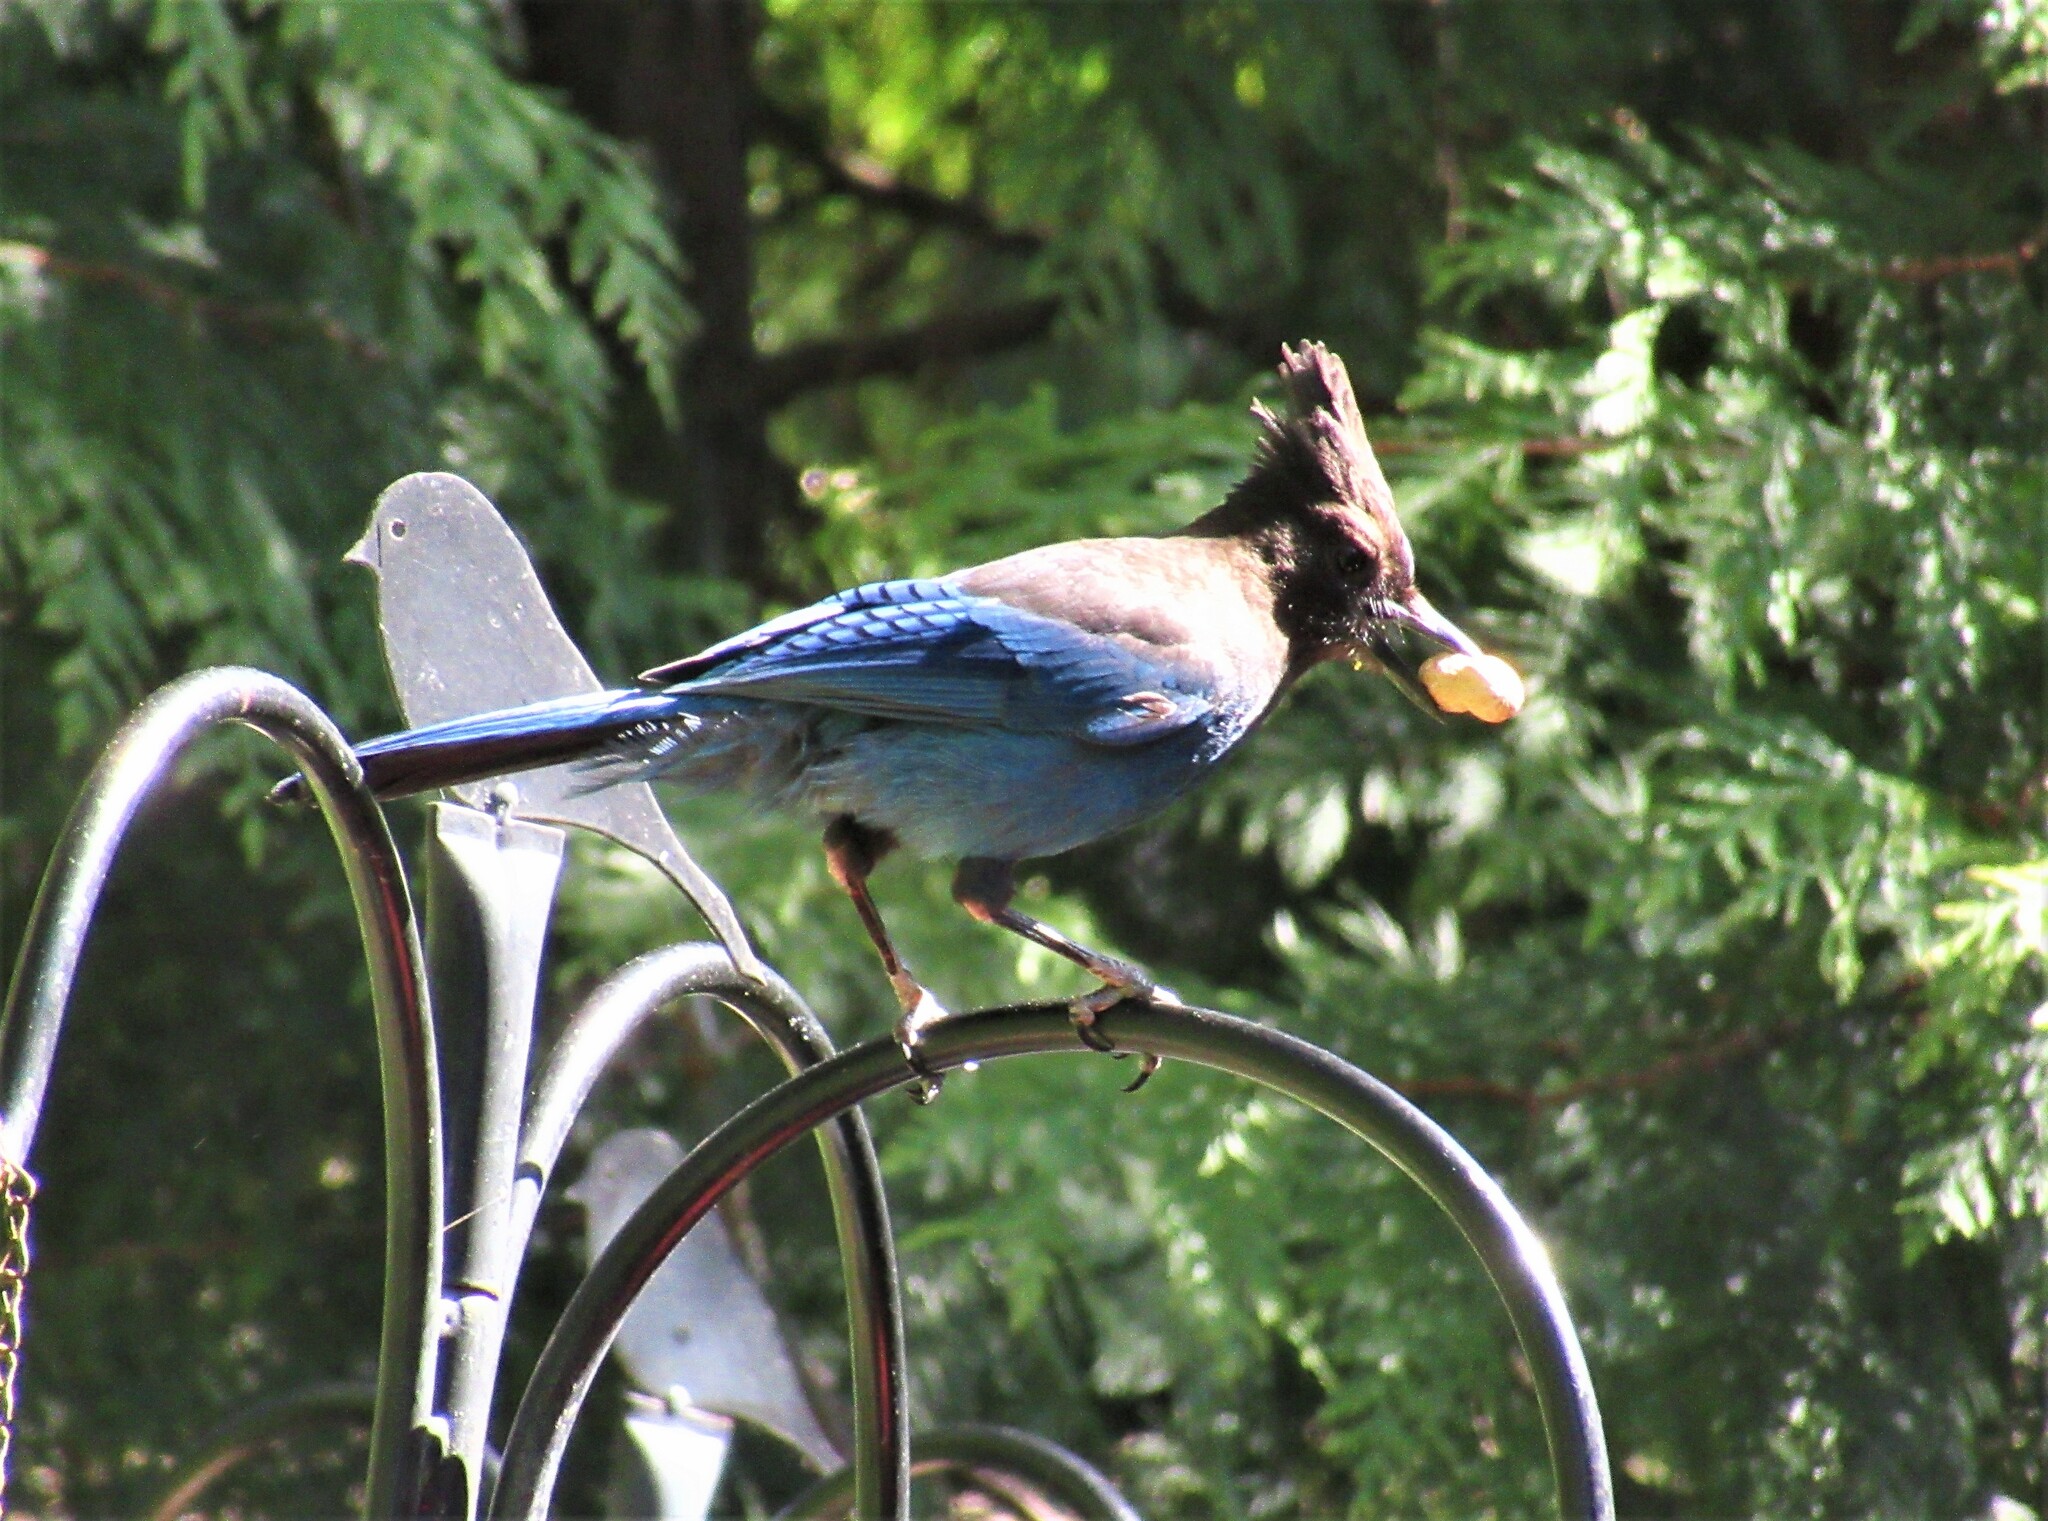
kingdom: Animalia
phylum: Chordata
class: Aves
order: Passeriformes
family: Corvidae
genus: Cyanocitta
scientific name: Cyanocitta stelleri
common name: Steller's jay
